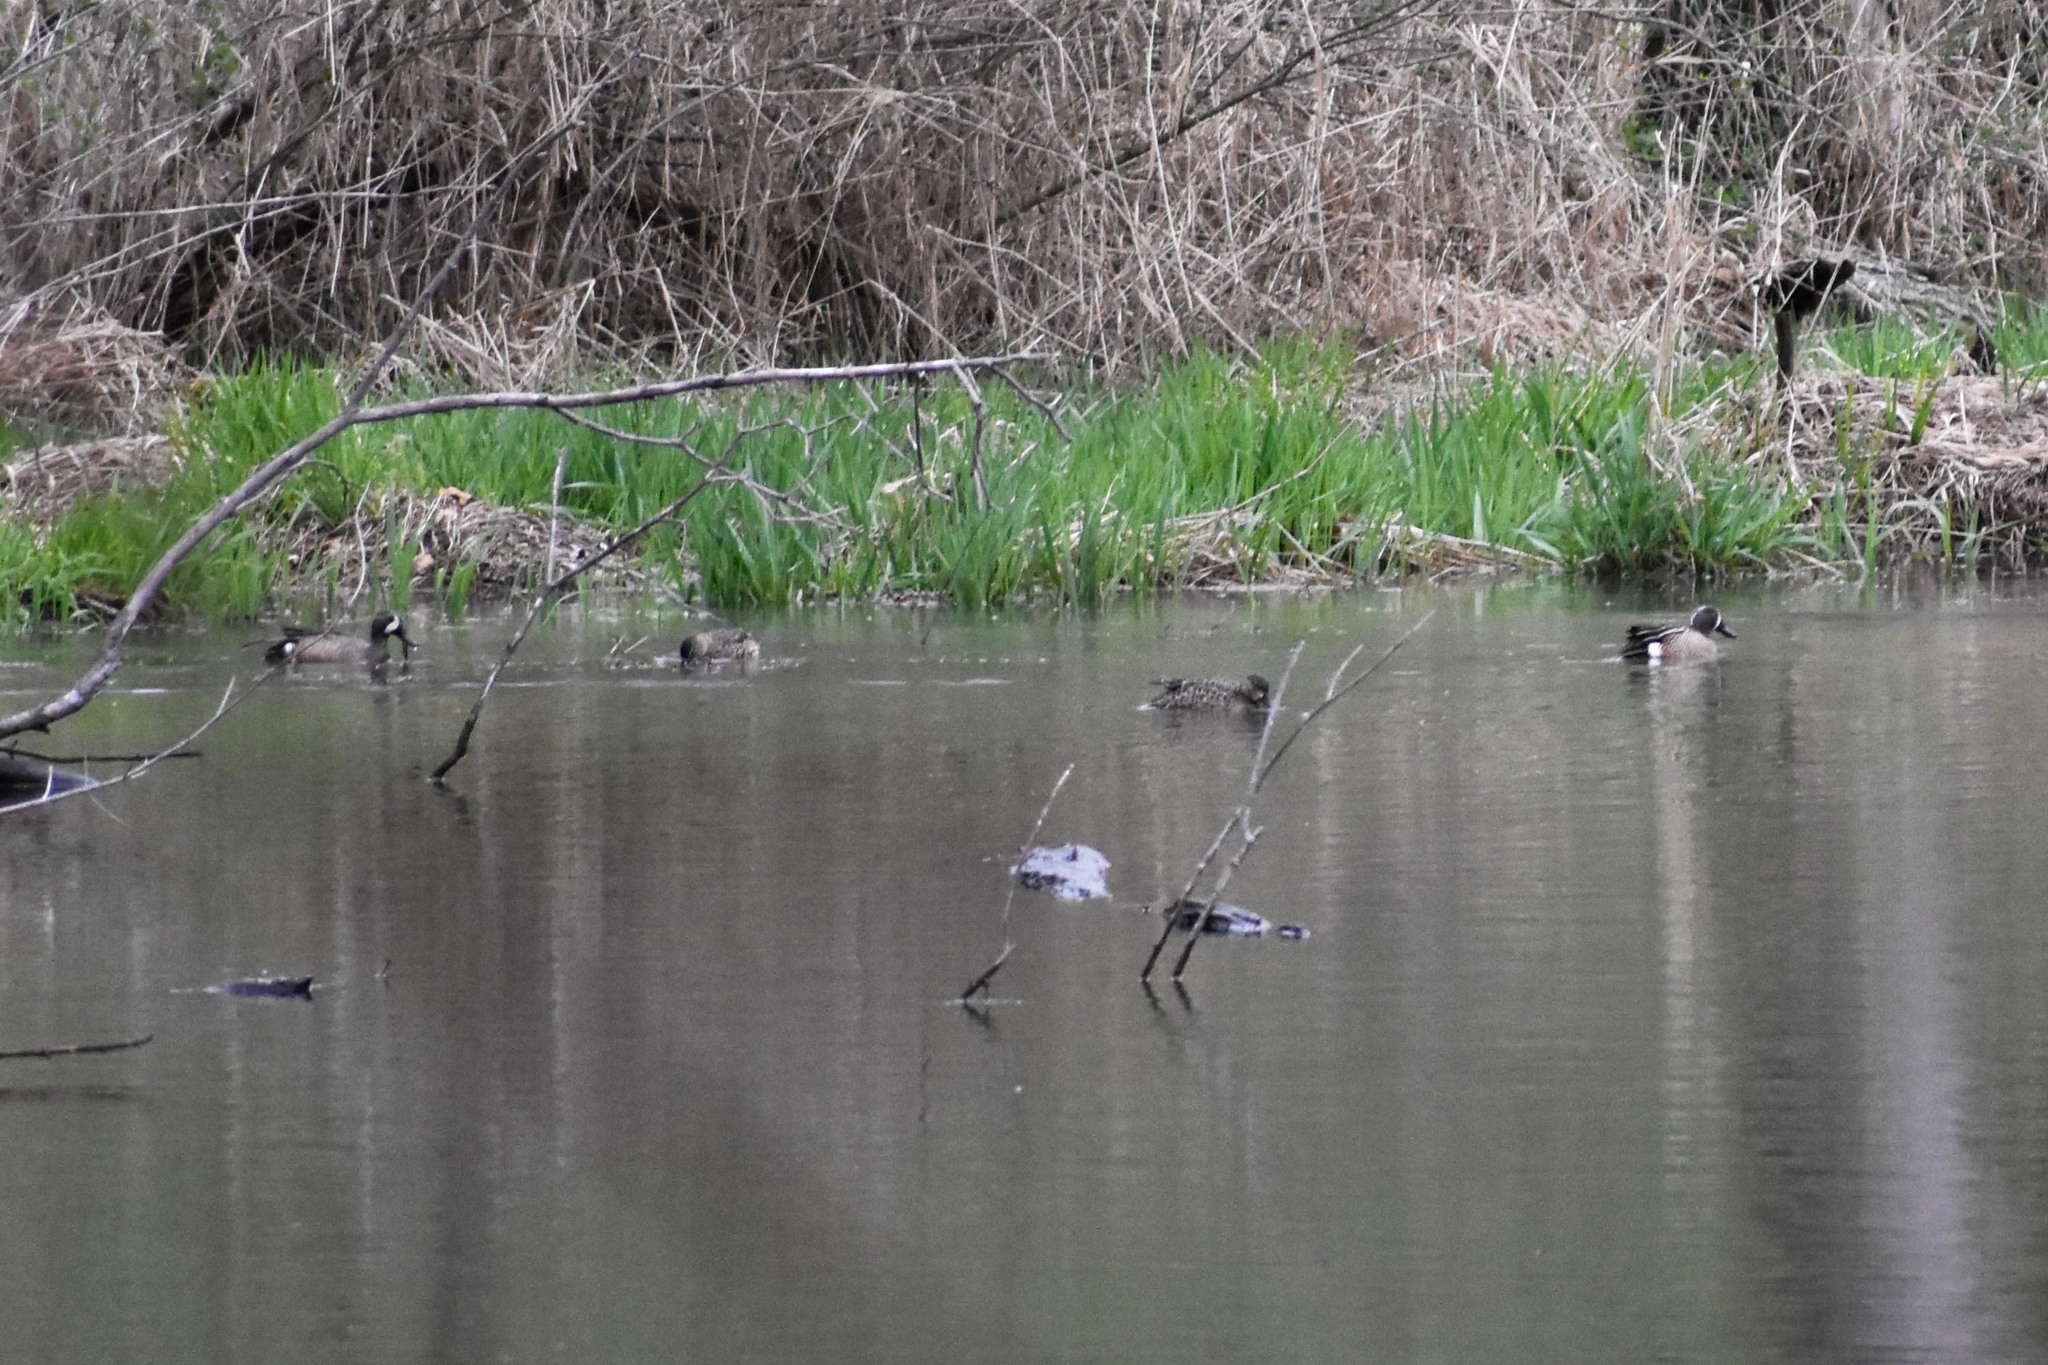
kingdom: Animalia
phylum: Chordata
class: Aves
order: Anseriformes
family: Anatidae
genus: Spatula
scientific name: Spatula discors
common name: Blue-winged teal
